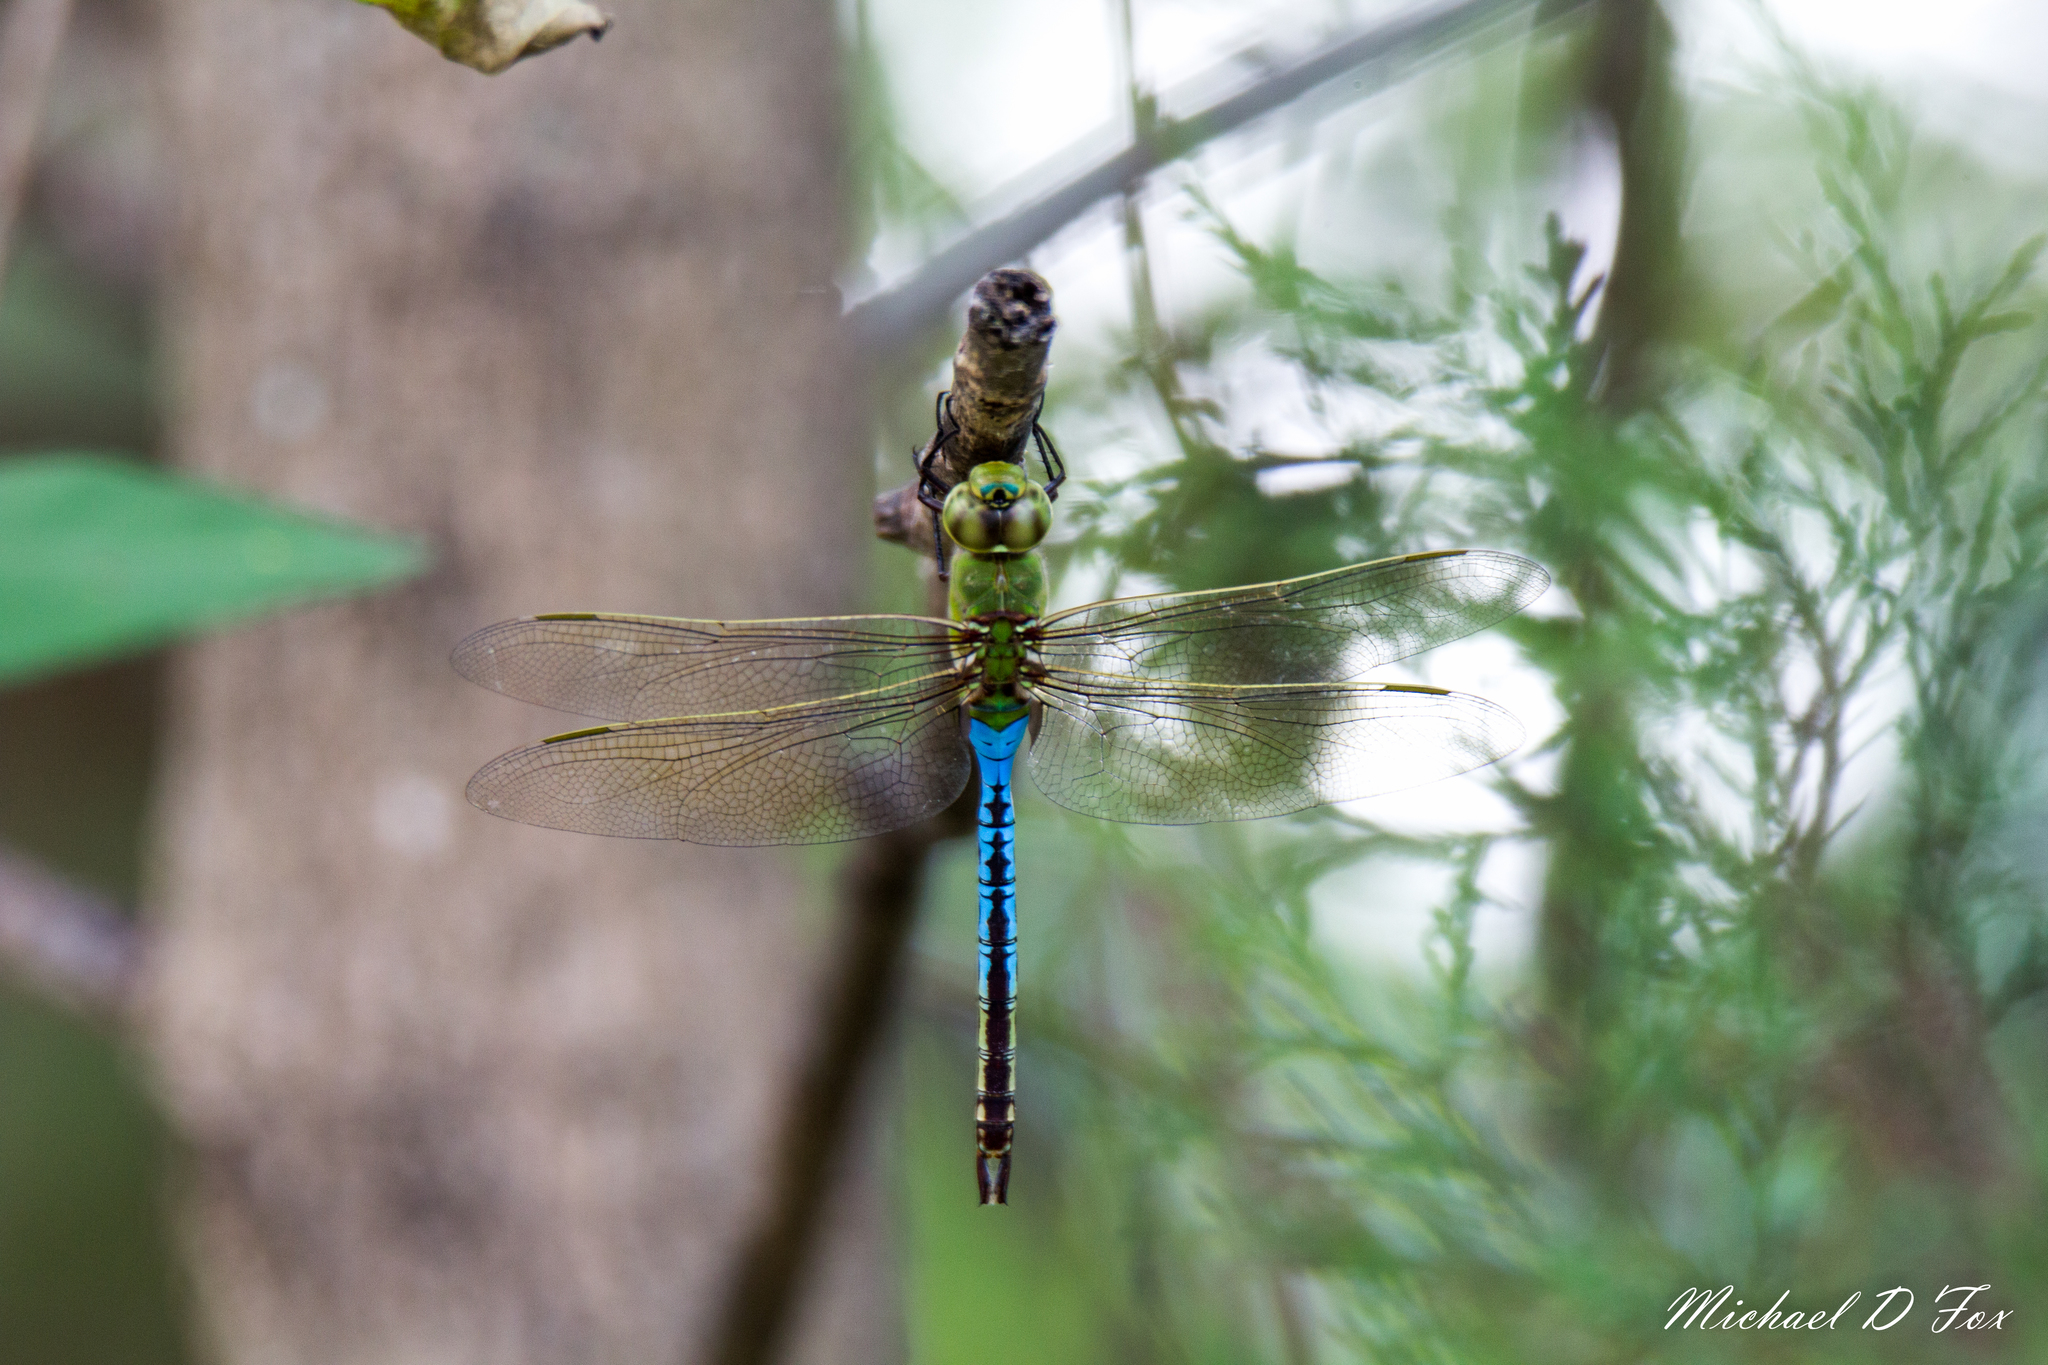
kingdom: Animalia
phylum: Arthropoda
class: Insecta
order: Odonata
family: Aeshnidae
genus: Anax
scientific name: Anax junius
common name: Common green darner
